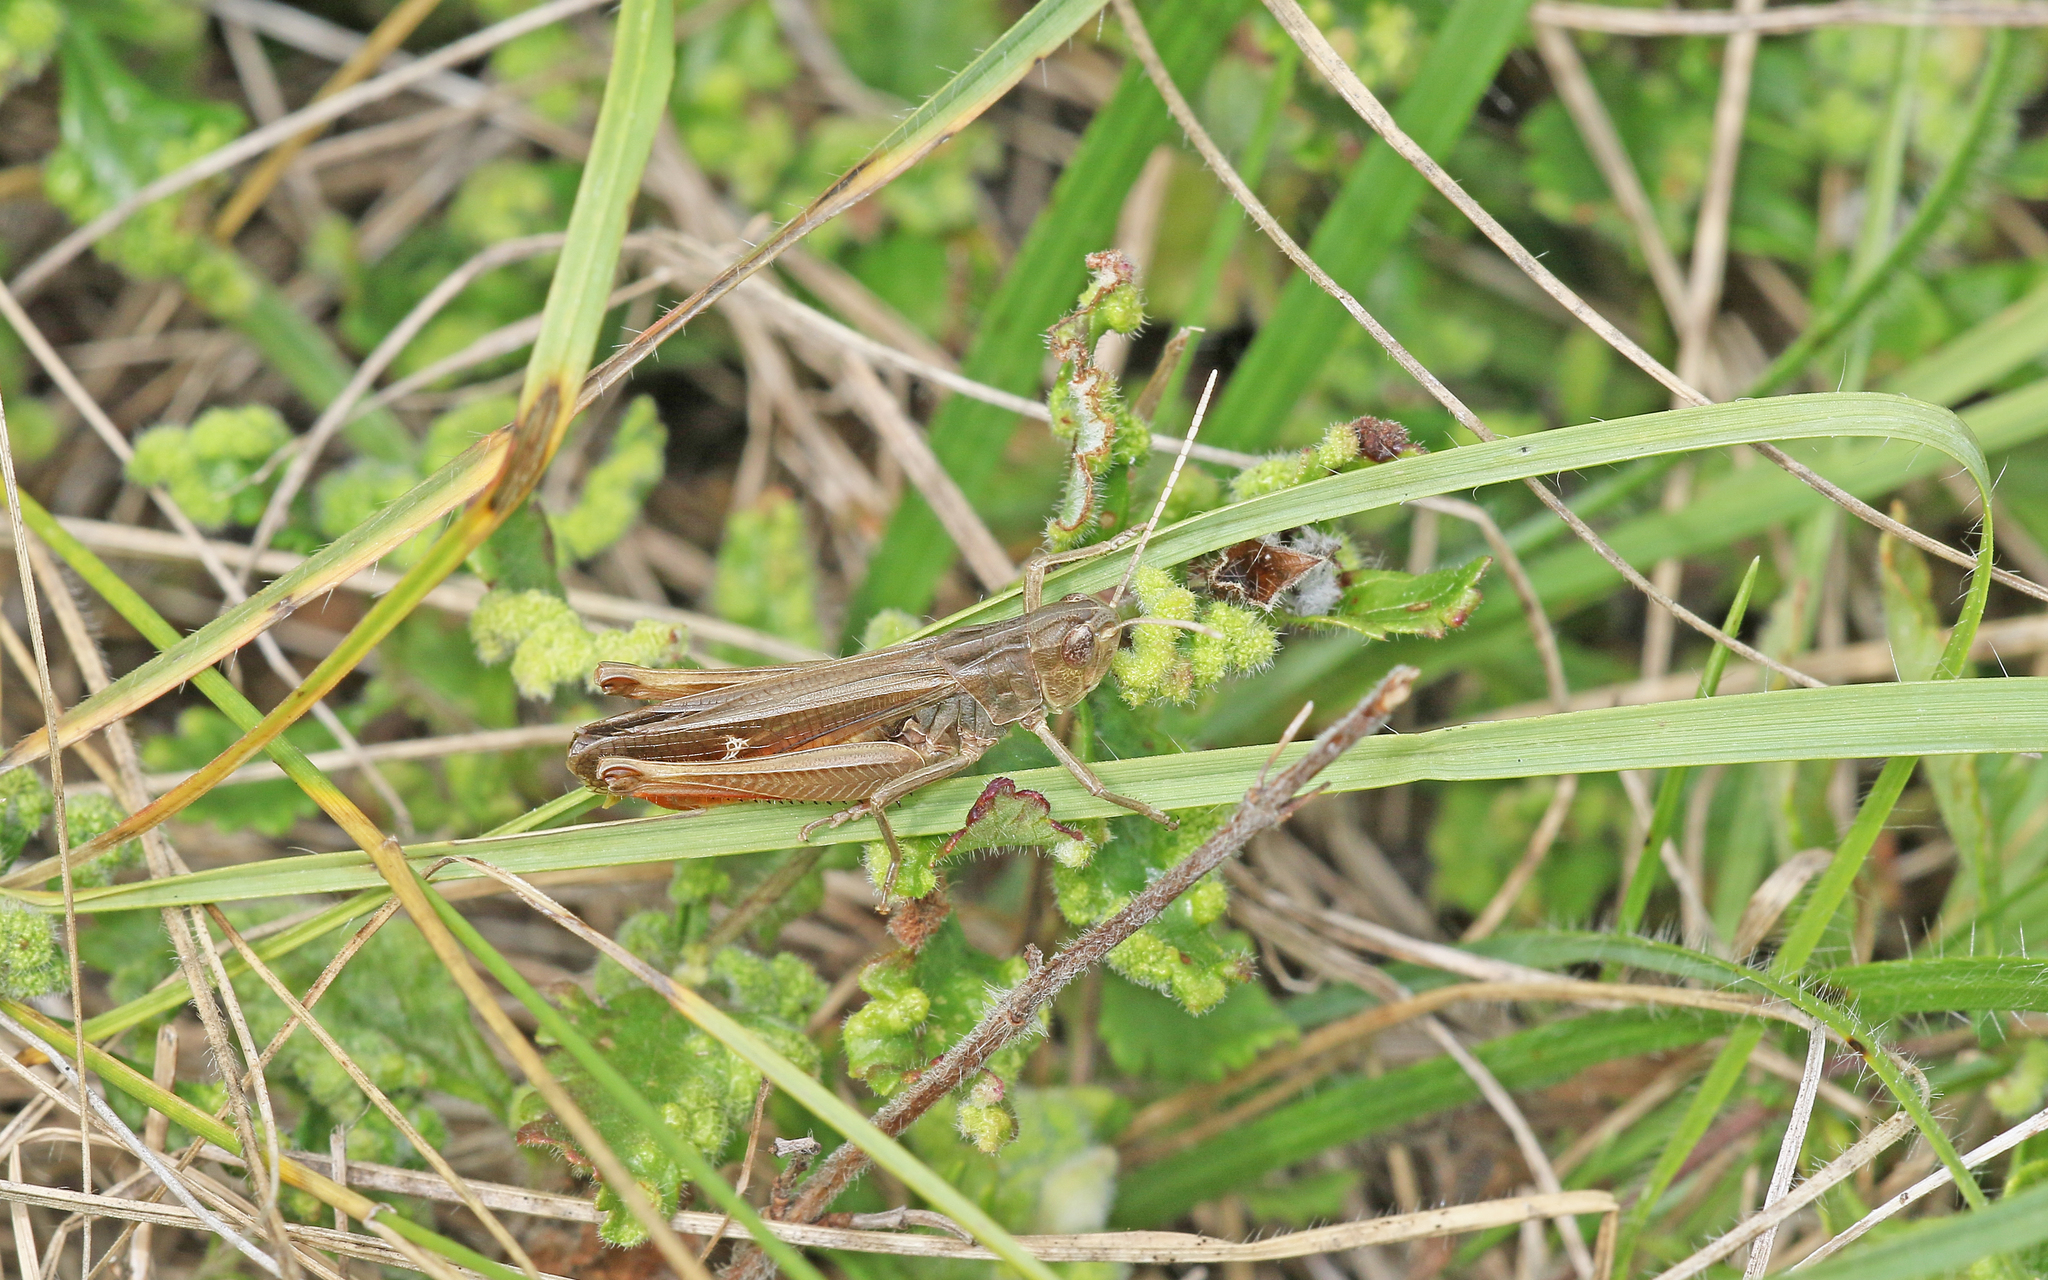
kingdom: Animalia
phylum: Arthropoda
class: Insecta
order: Orthoptera
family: Acrididae
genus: Stenobothrus
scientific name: Stenobothrus lineatus
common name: Stripe-winged grasshopper
